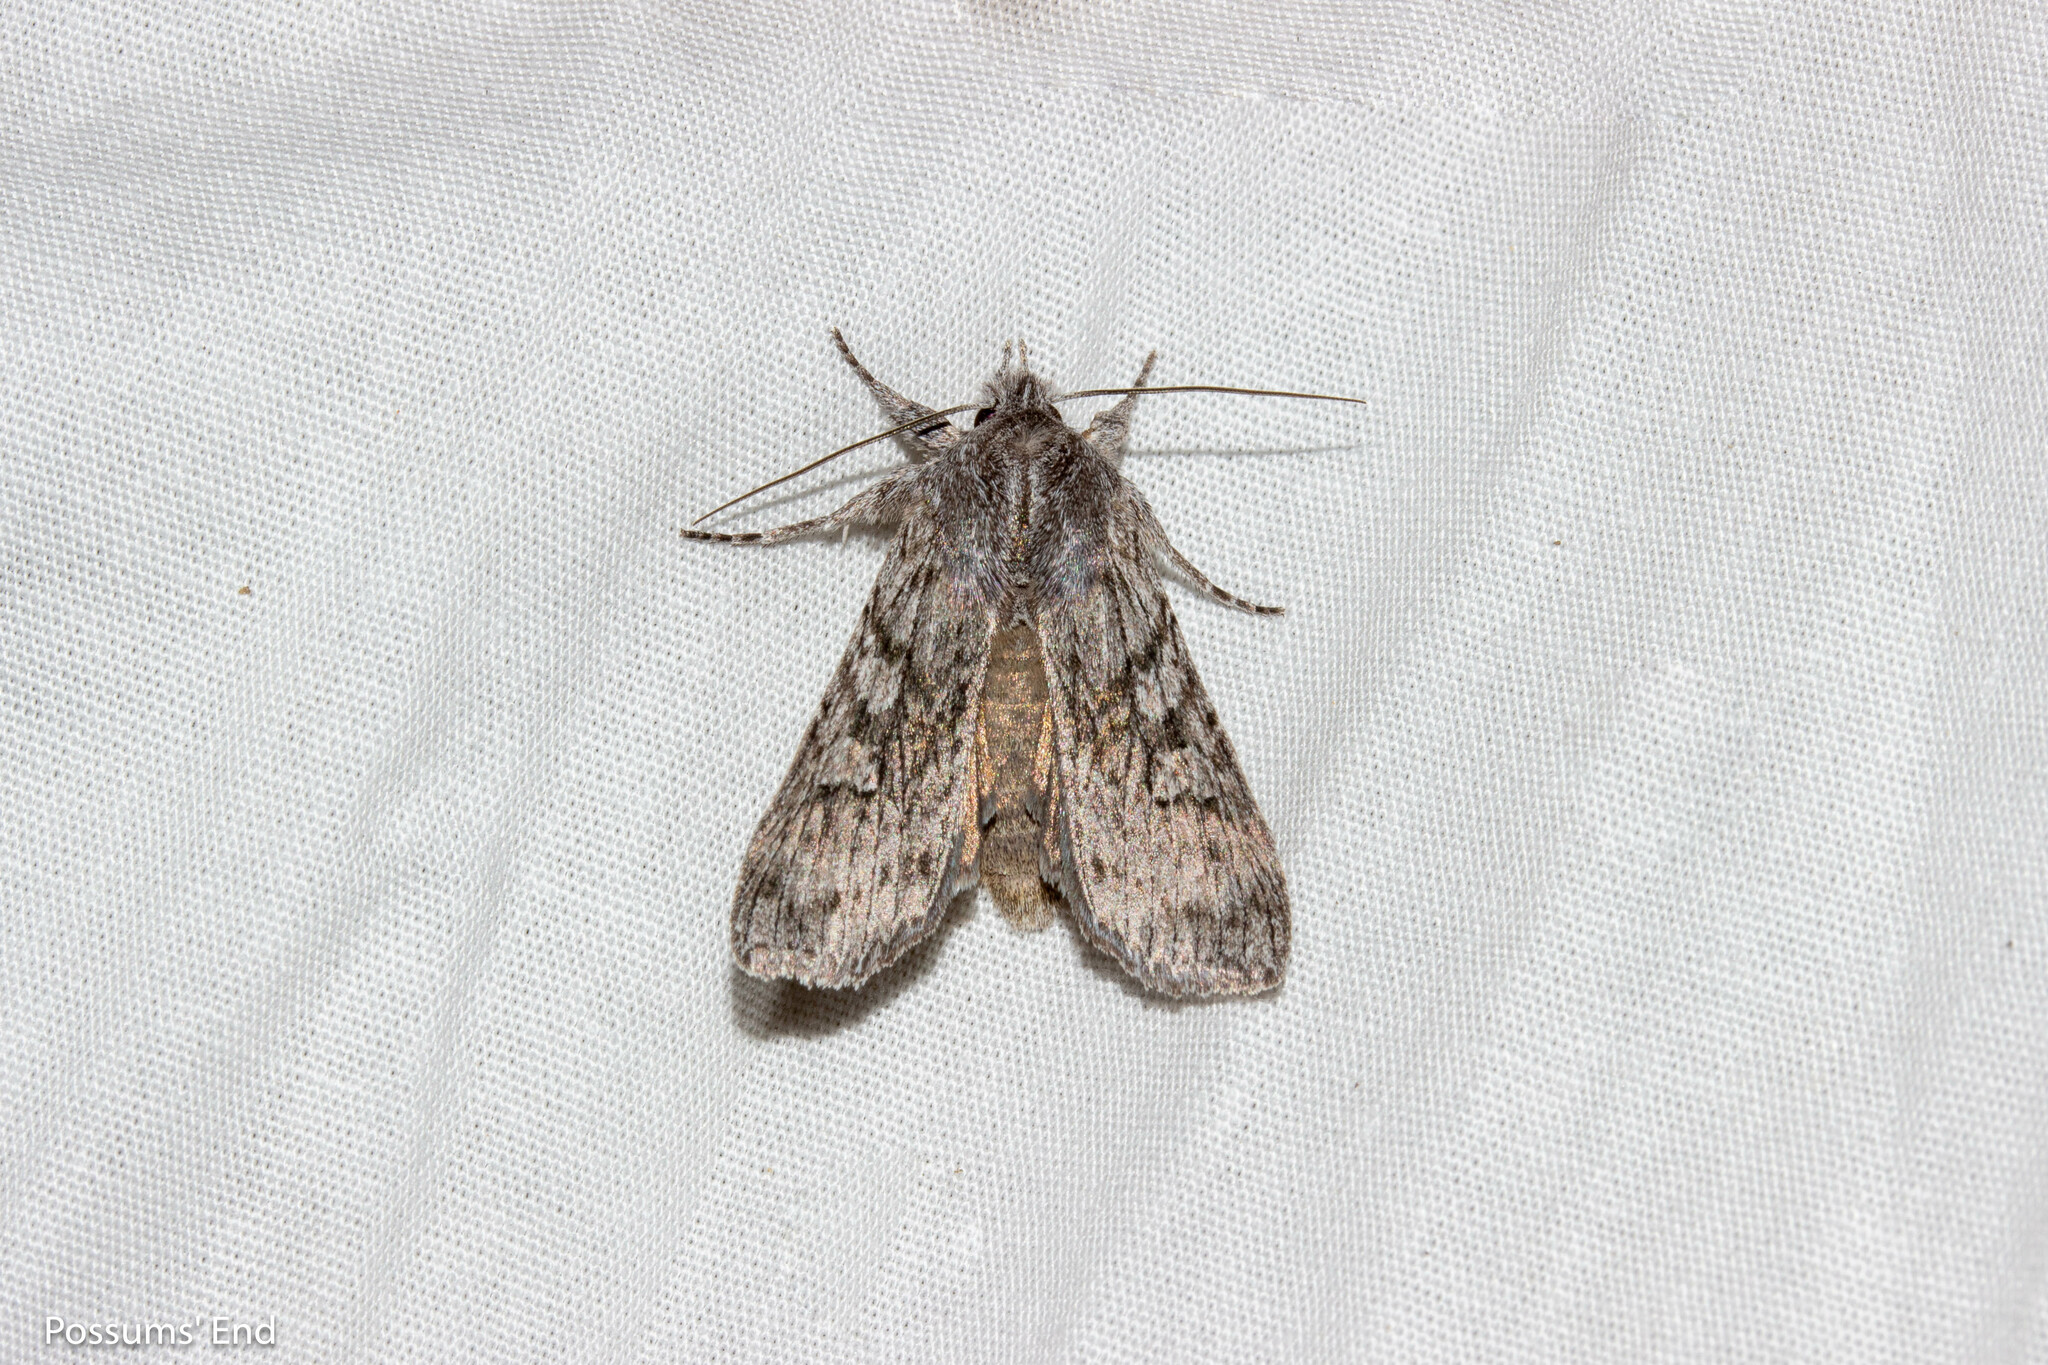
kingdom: Animalia
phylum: Arthropoda
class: Insecta
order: Lepidoptera
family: Noctuidae
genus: Physetica
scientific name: Physetica phricias
